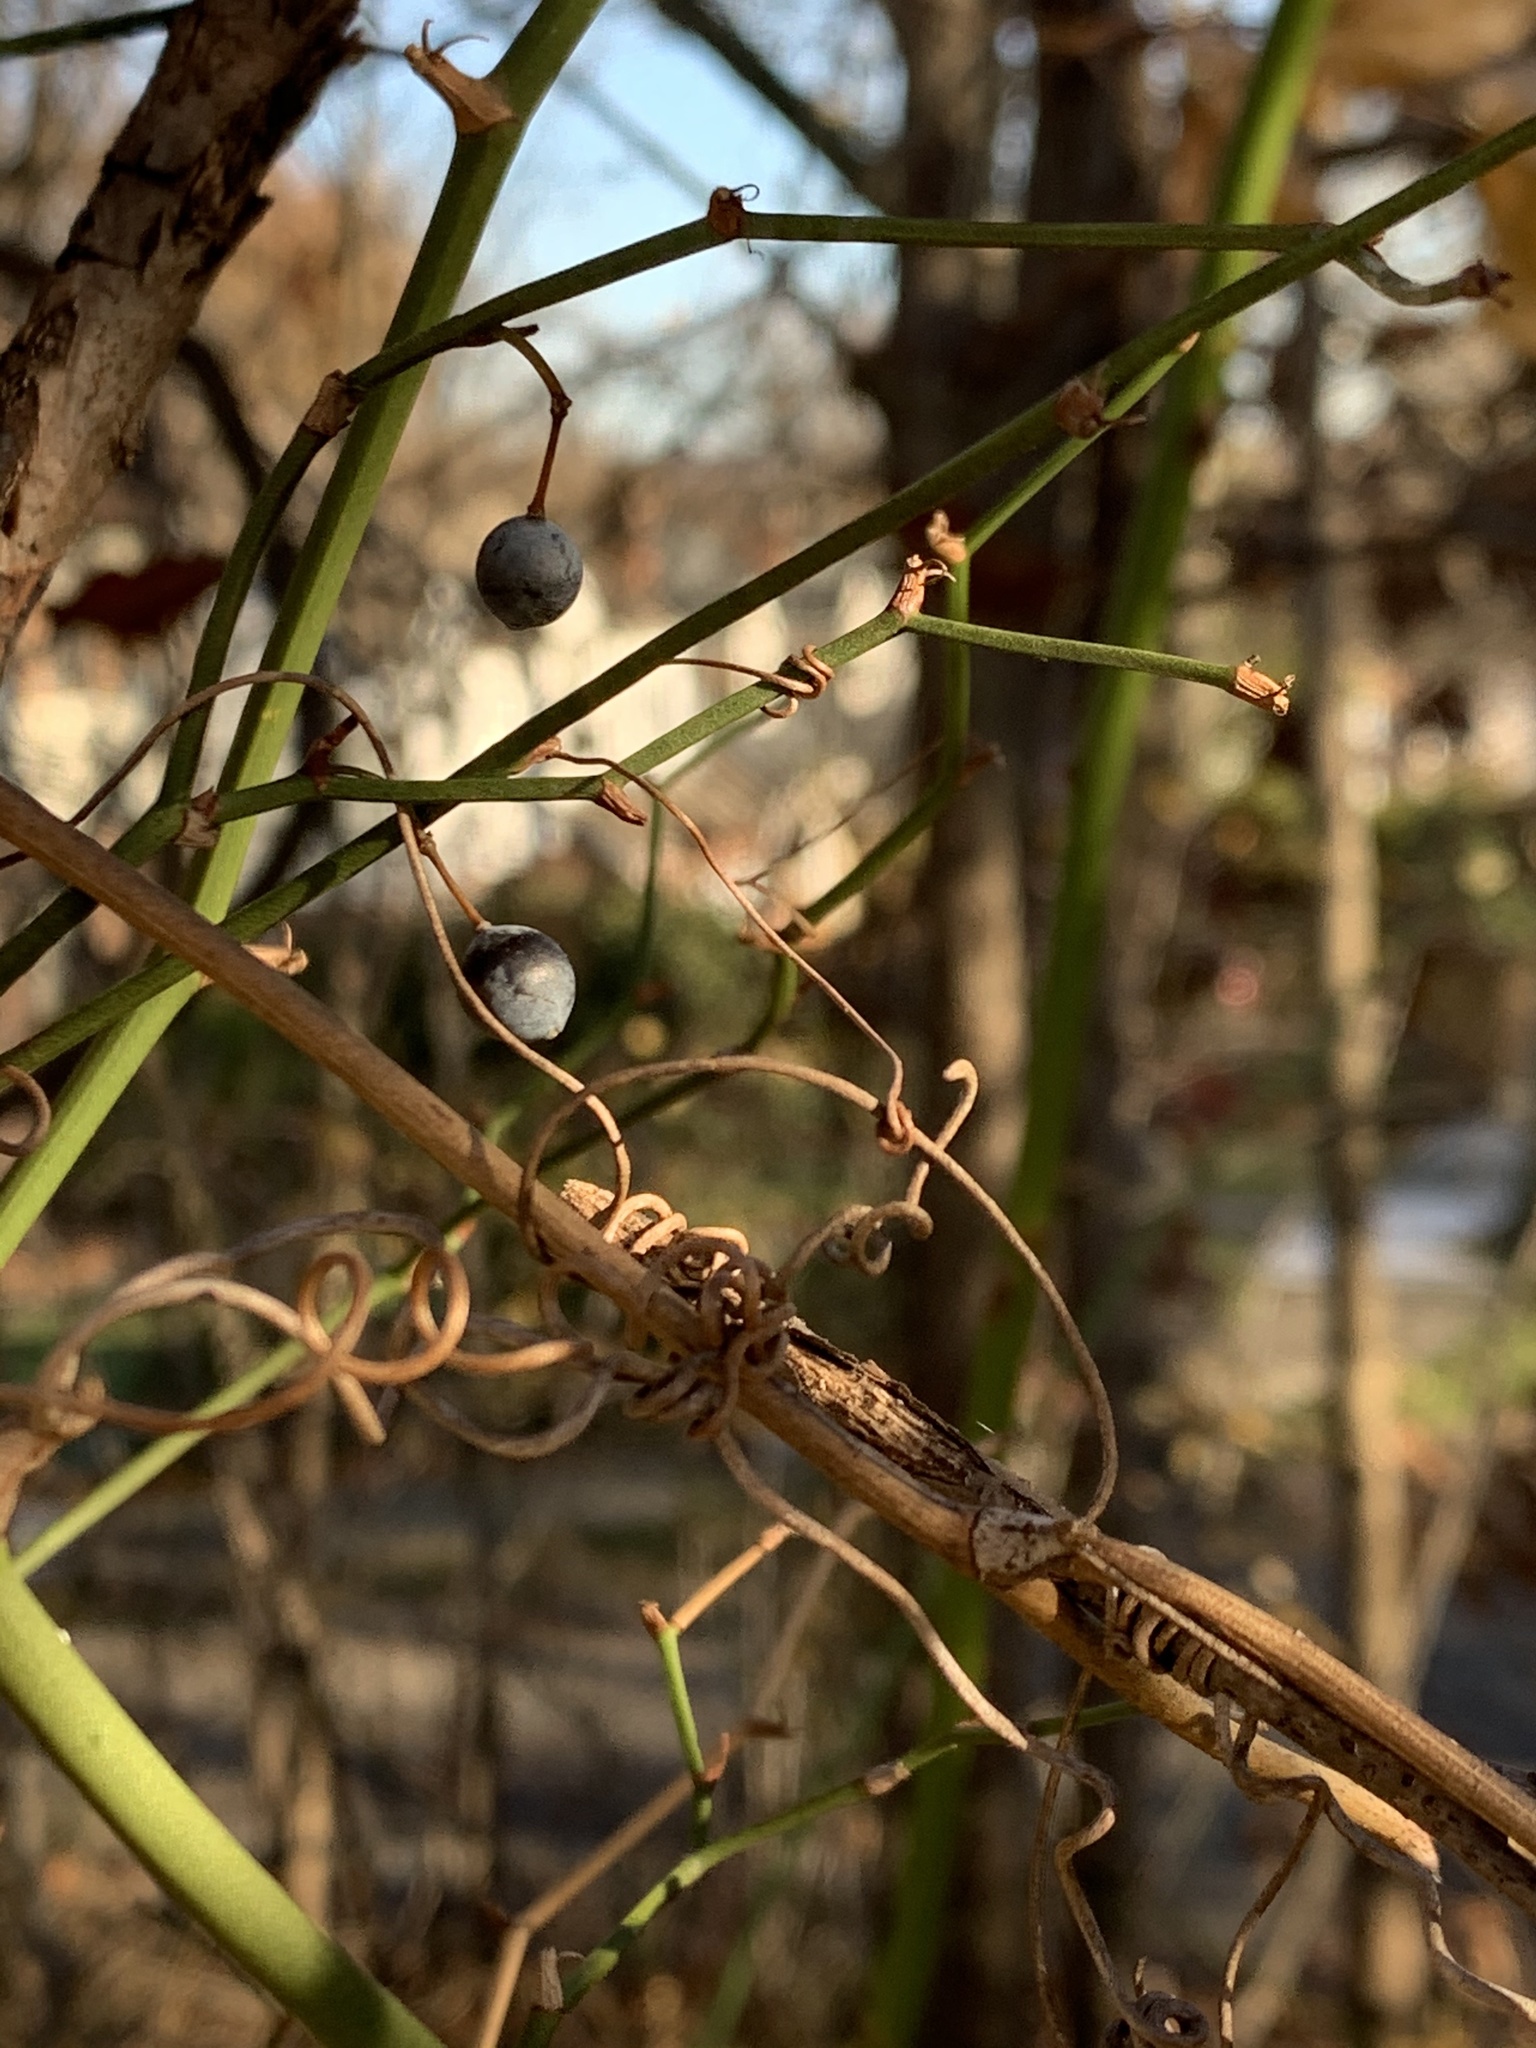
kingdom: Plantae
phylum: Tracheophyta
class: Liliopsida
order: Liliales
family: Smilacaceae
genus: Smilax
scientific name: Smilax rotundifolia
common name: Bullbriar
